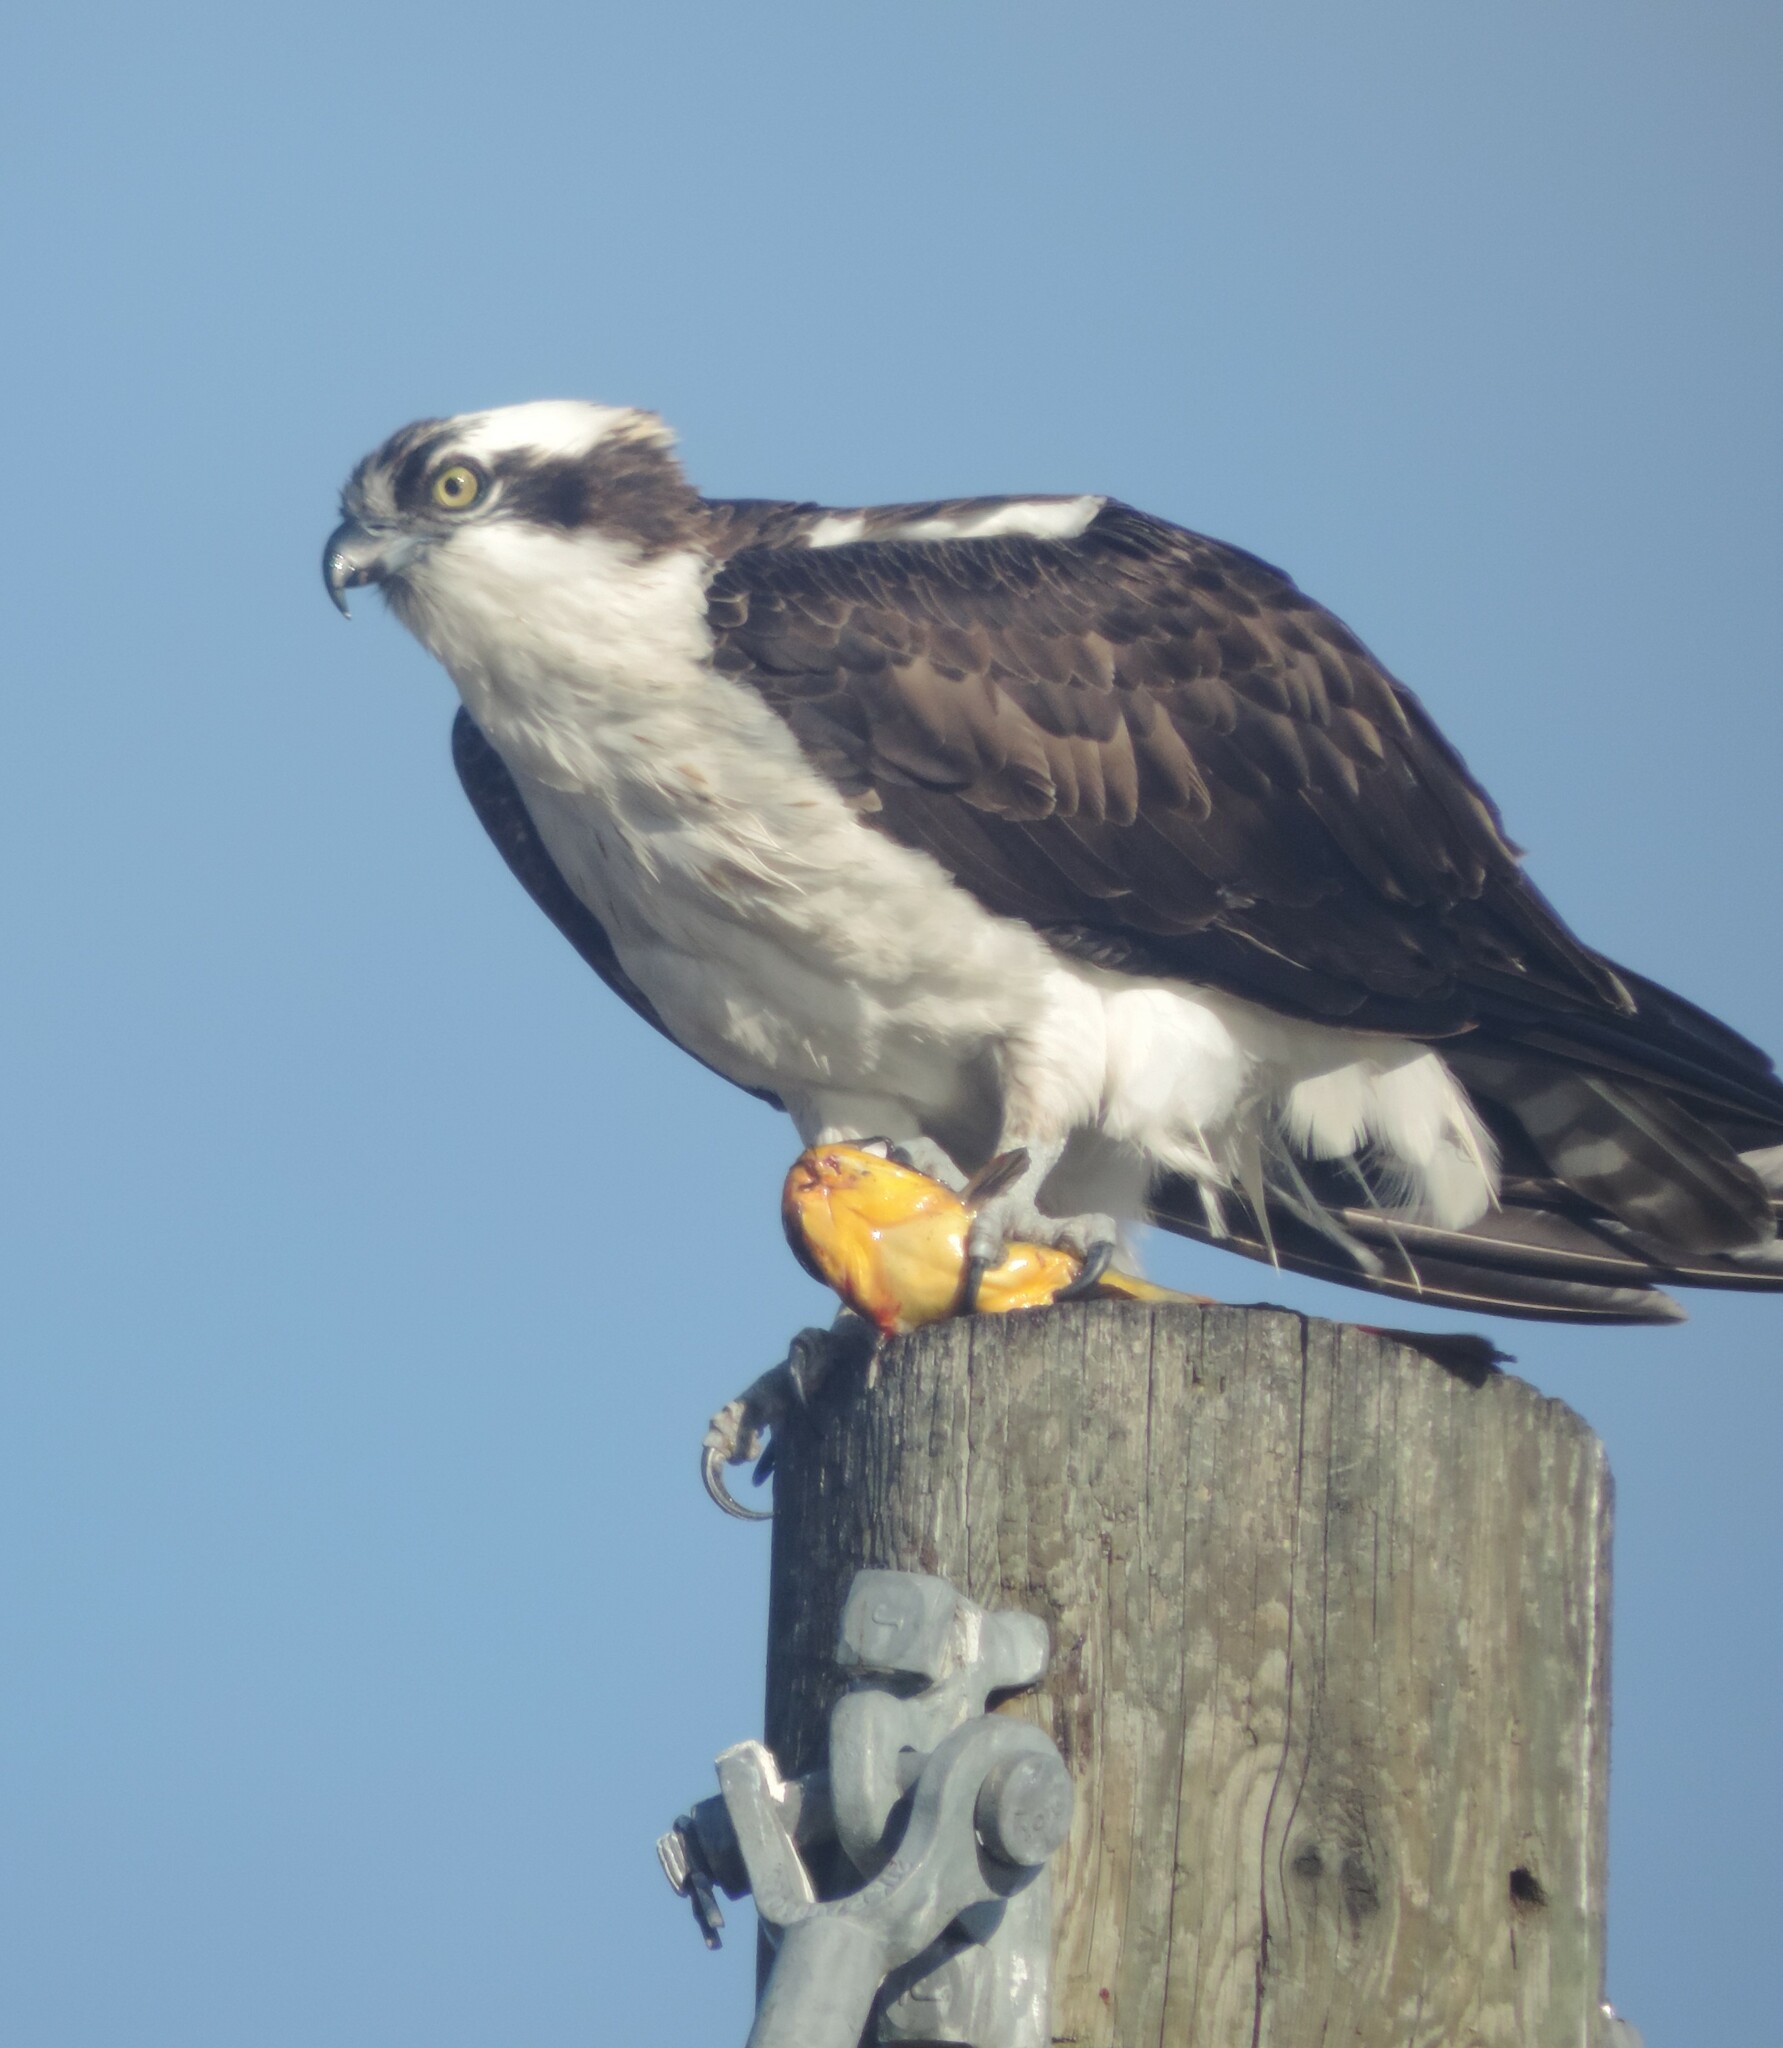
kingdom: Animalia
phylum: Chordata
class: Aves
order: Accipitriformes
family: Pandionidae
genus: Pandion
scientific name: Pandion haliaetus
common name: Osprey
